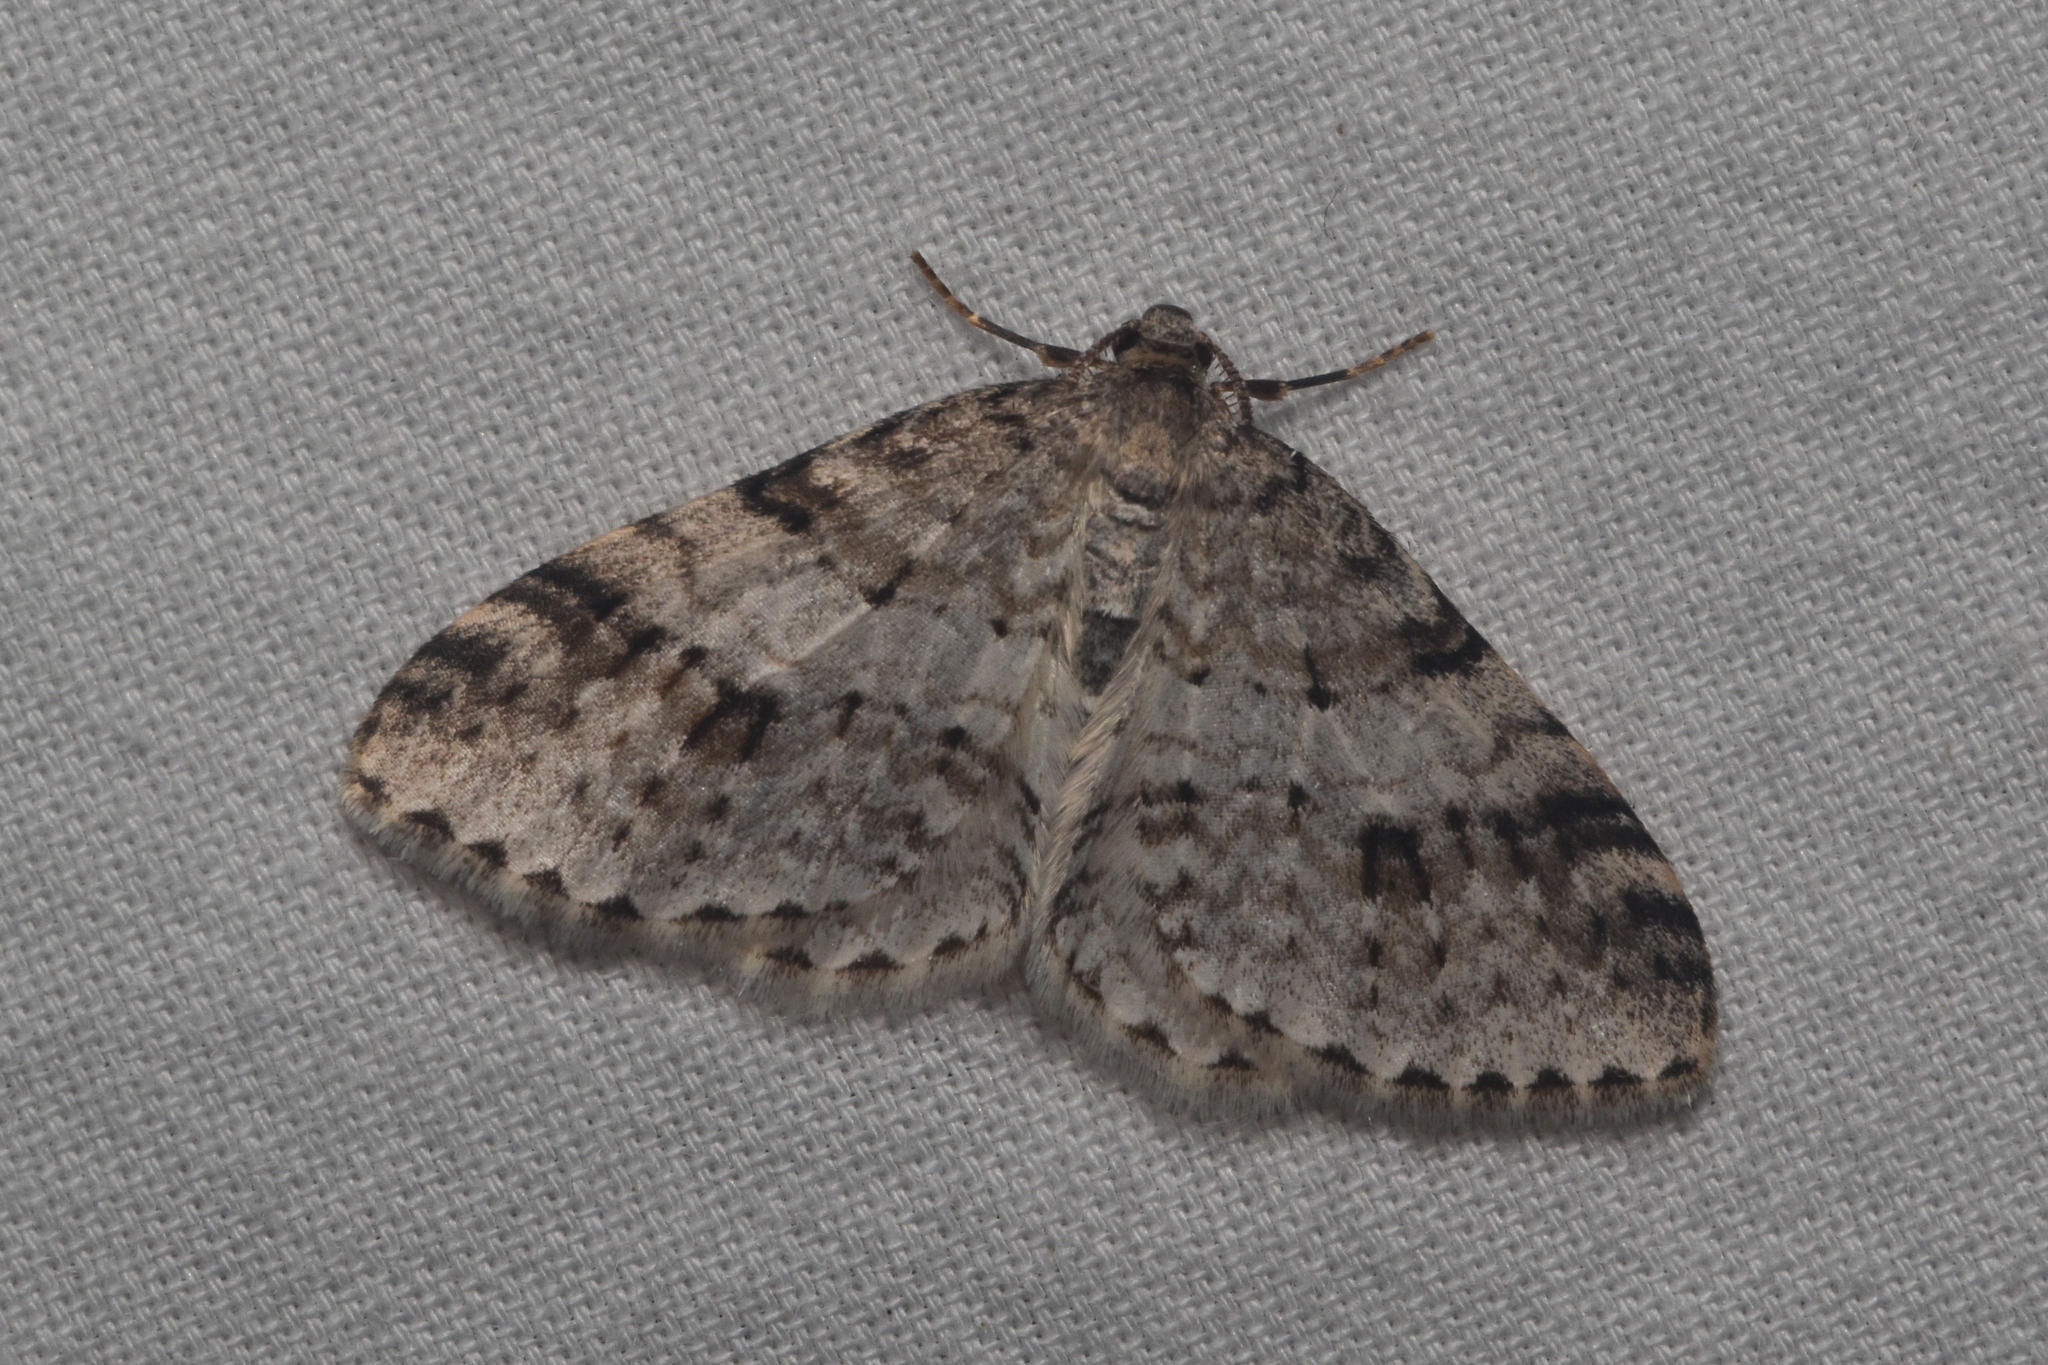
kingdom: Animalia
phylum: Arthropoda
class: Insecta
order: Lepidoptera
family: Geometridae
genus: Venusia
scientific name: Venusia cambrica
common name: Welsh wave
